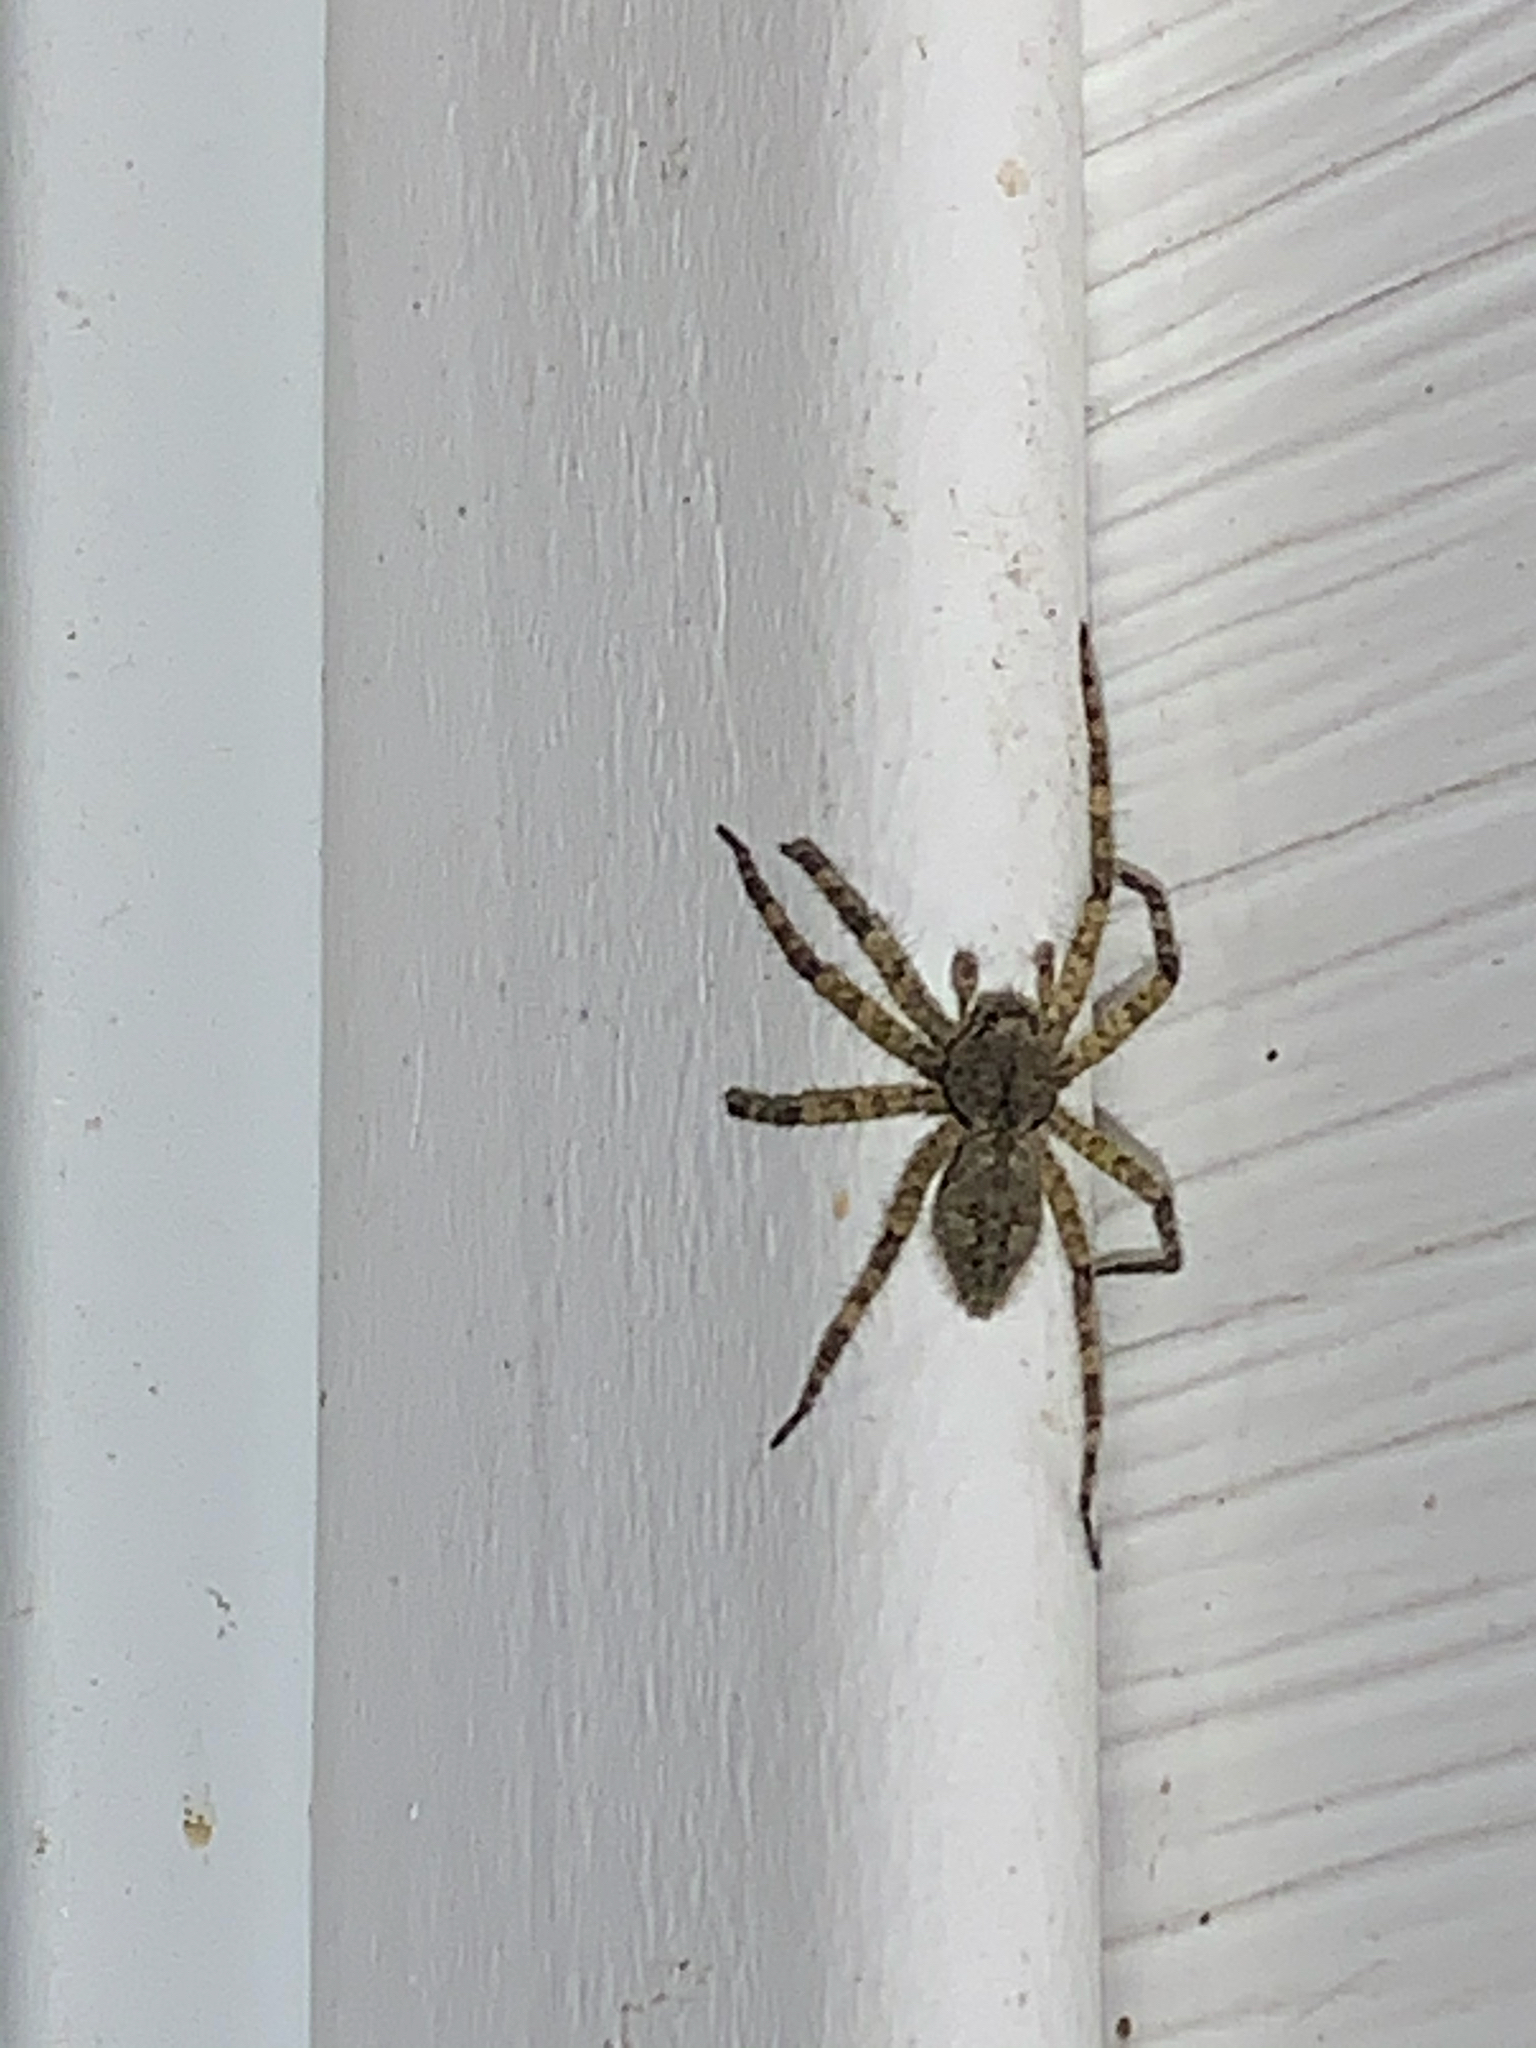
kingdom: Animalia
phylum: Arthropoda
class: Arachnida
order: Araneae
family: Pisauridae
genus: Dolomedes
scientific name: Dolomedes albineus
